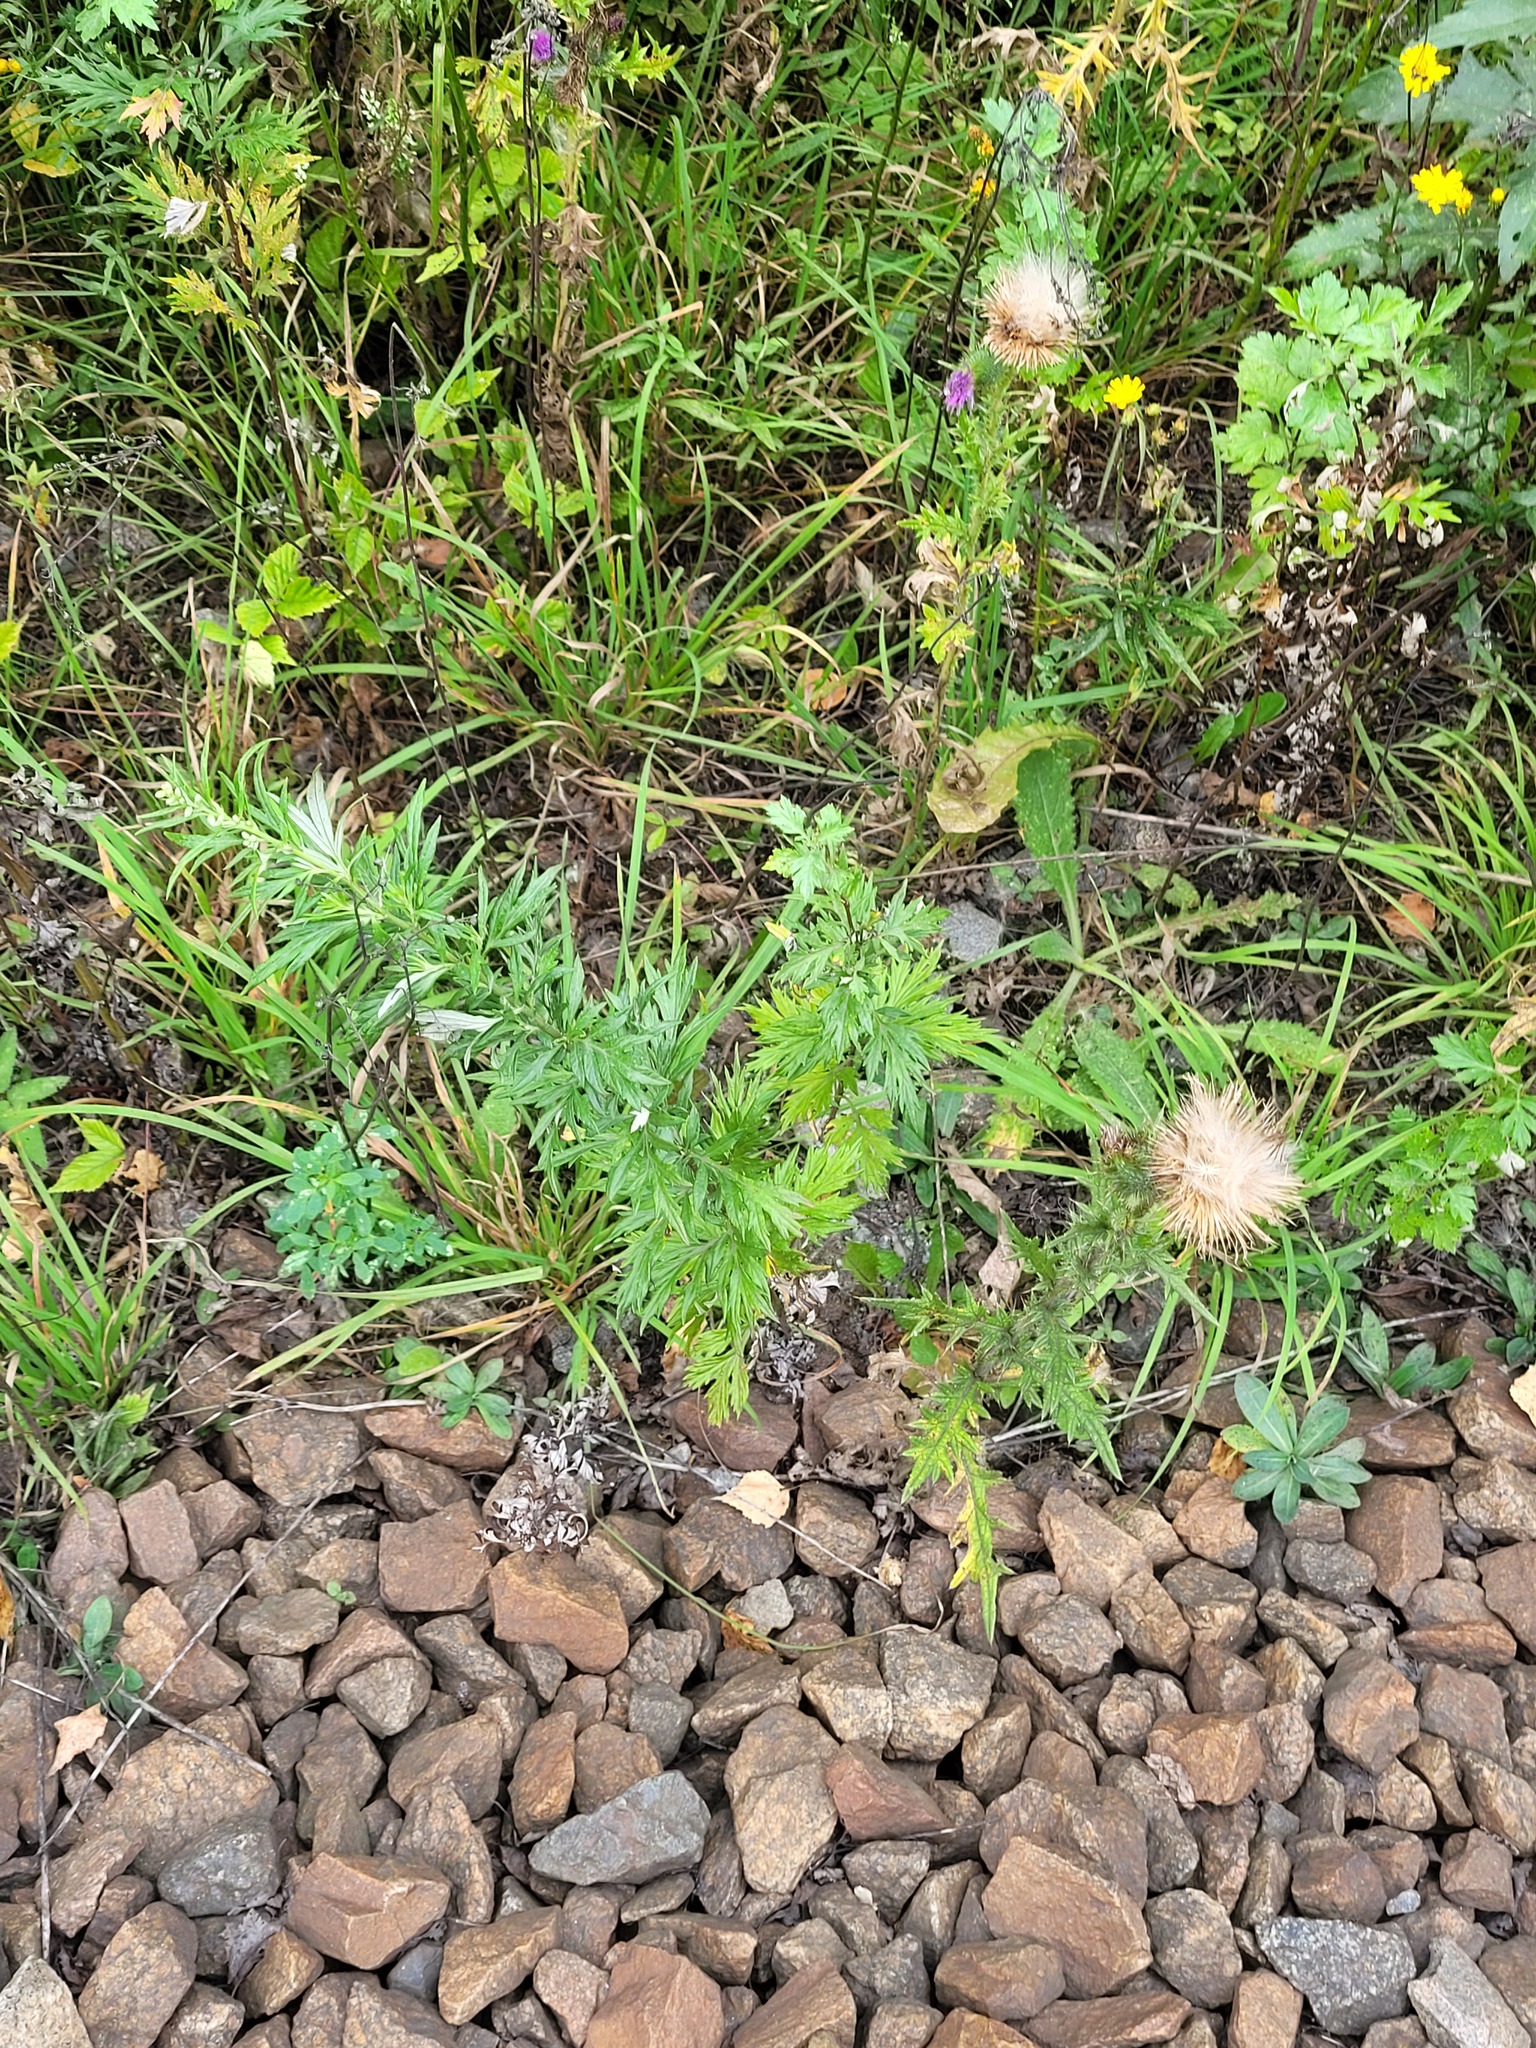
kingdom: Plantae
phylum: Tracheophyta
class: Magnoliopsida
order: Asterales
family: Asteraceae
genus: Artemisia
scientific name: Artemisia vulgaris
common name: Mugwort
